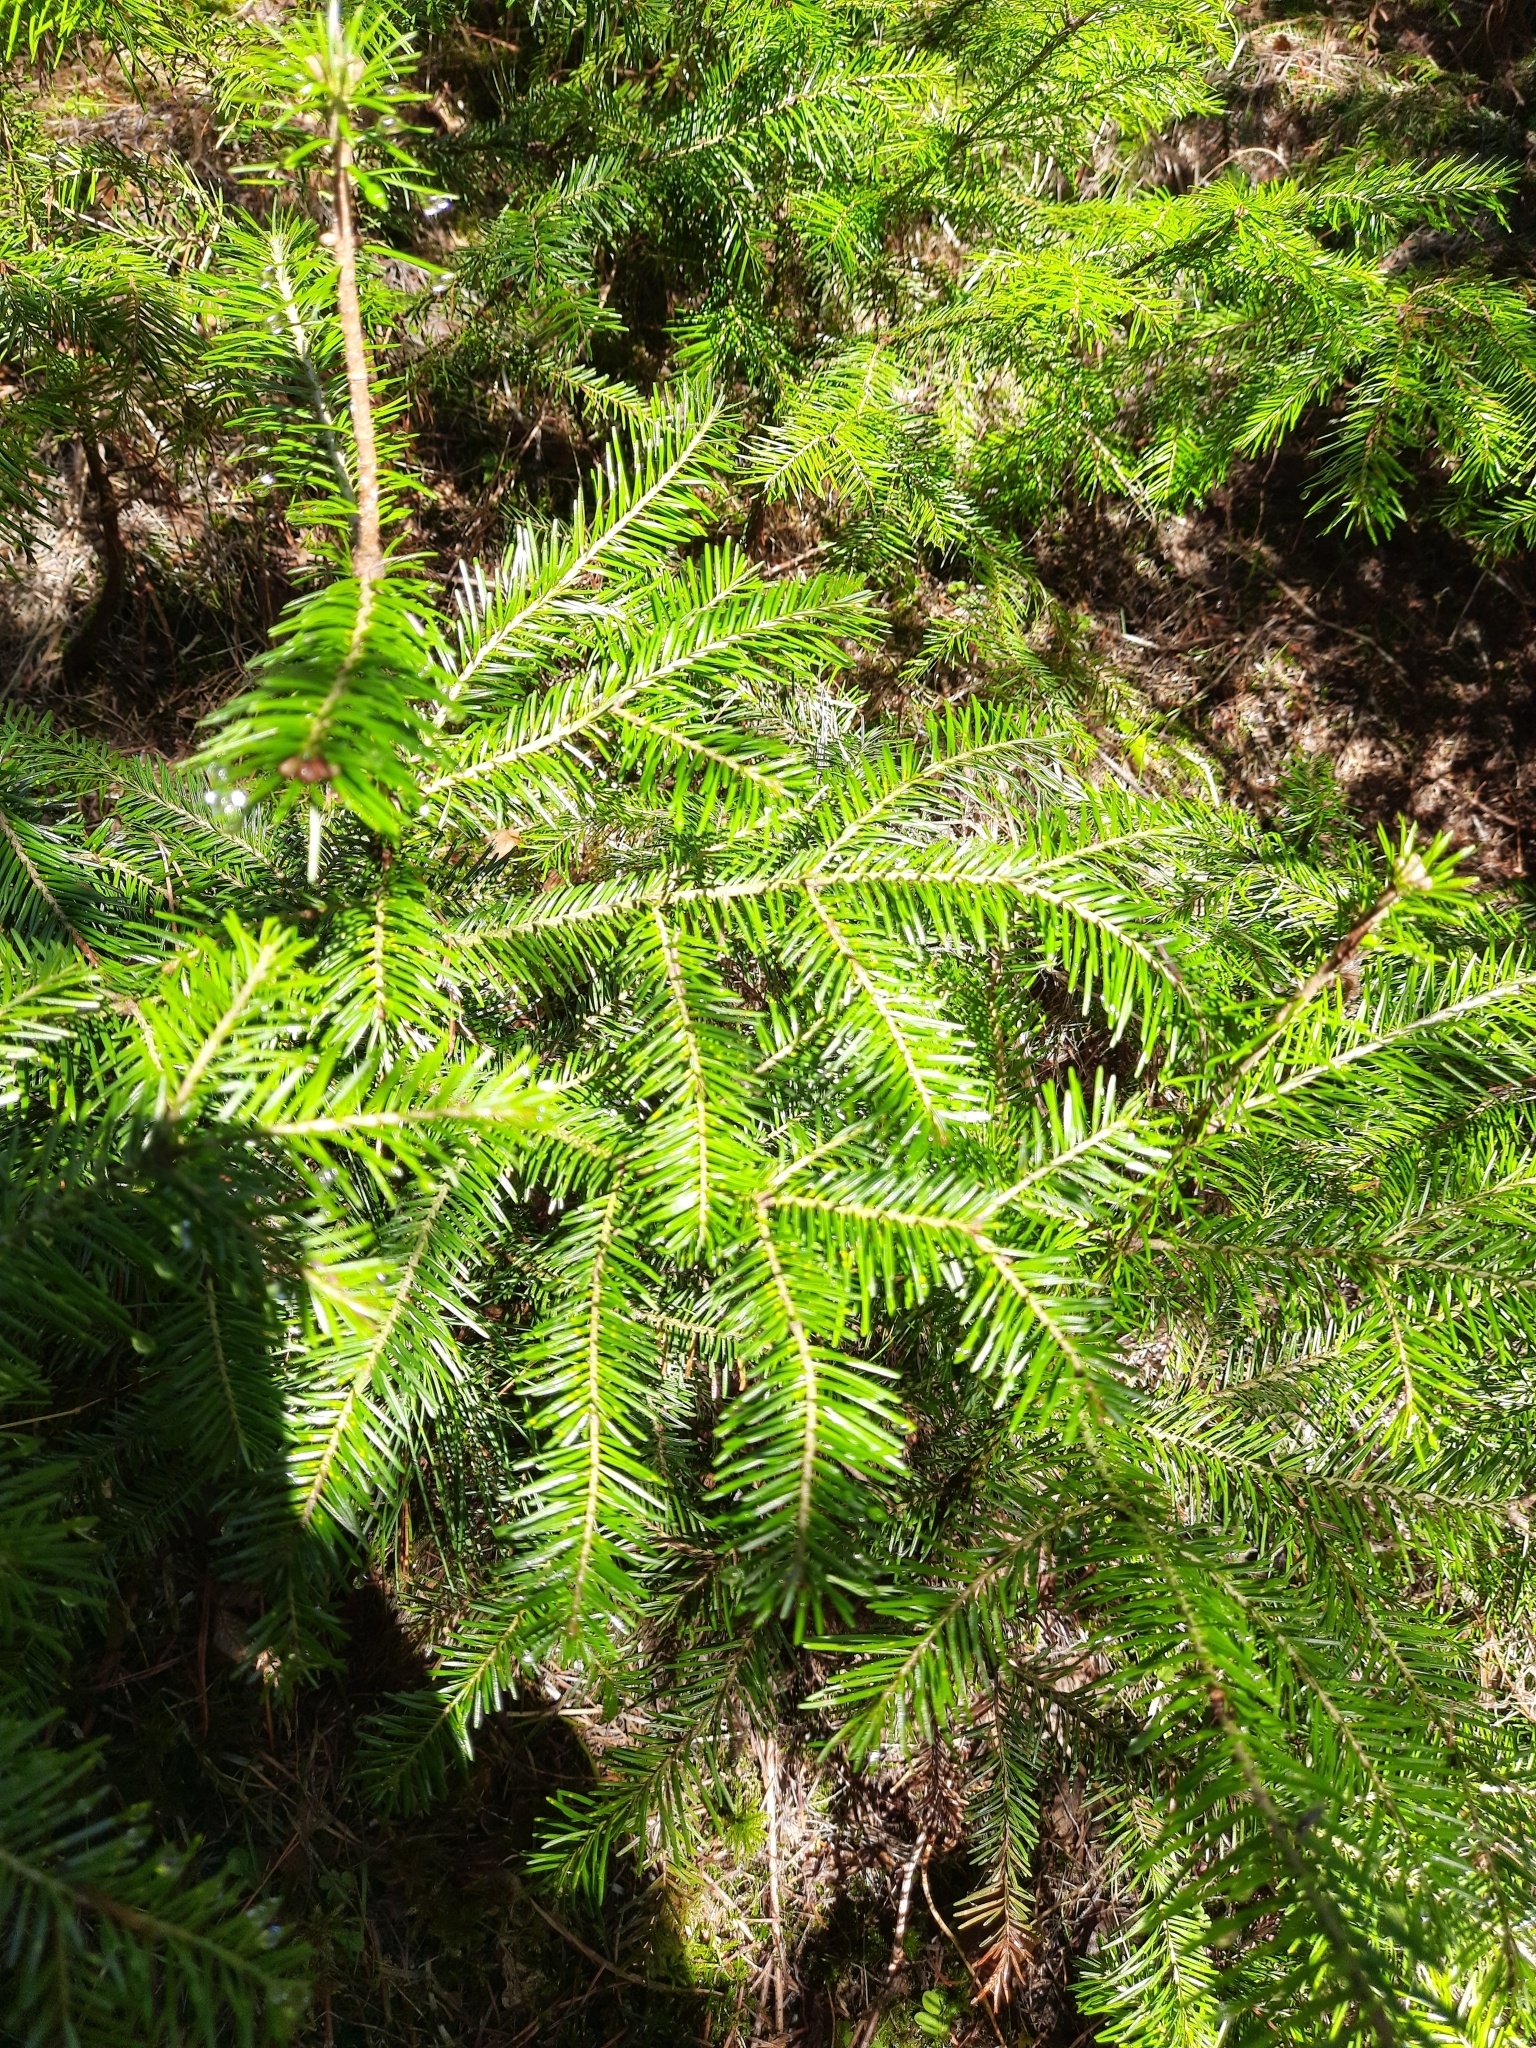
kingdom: Plantae
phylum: Tracheophyta
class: Pinopsida
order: Pinales
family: Pinaceae
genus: Abies
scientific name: Abies sibirica
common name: Siberian fir
